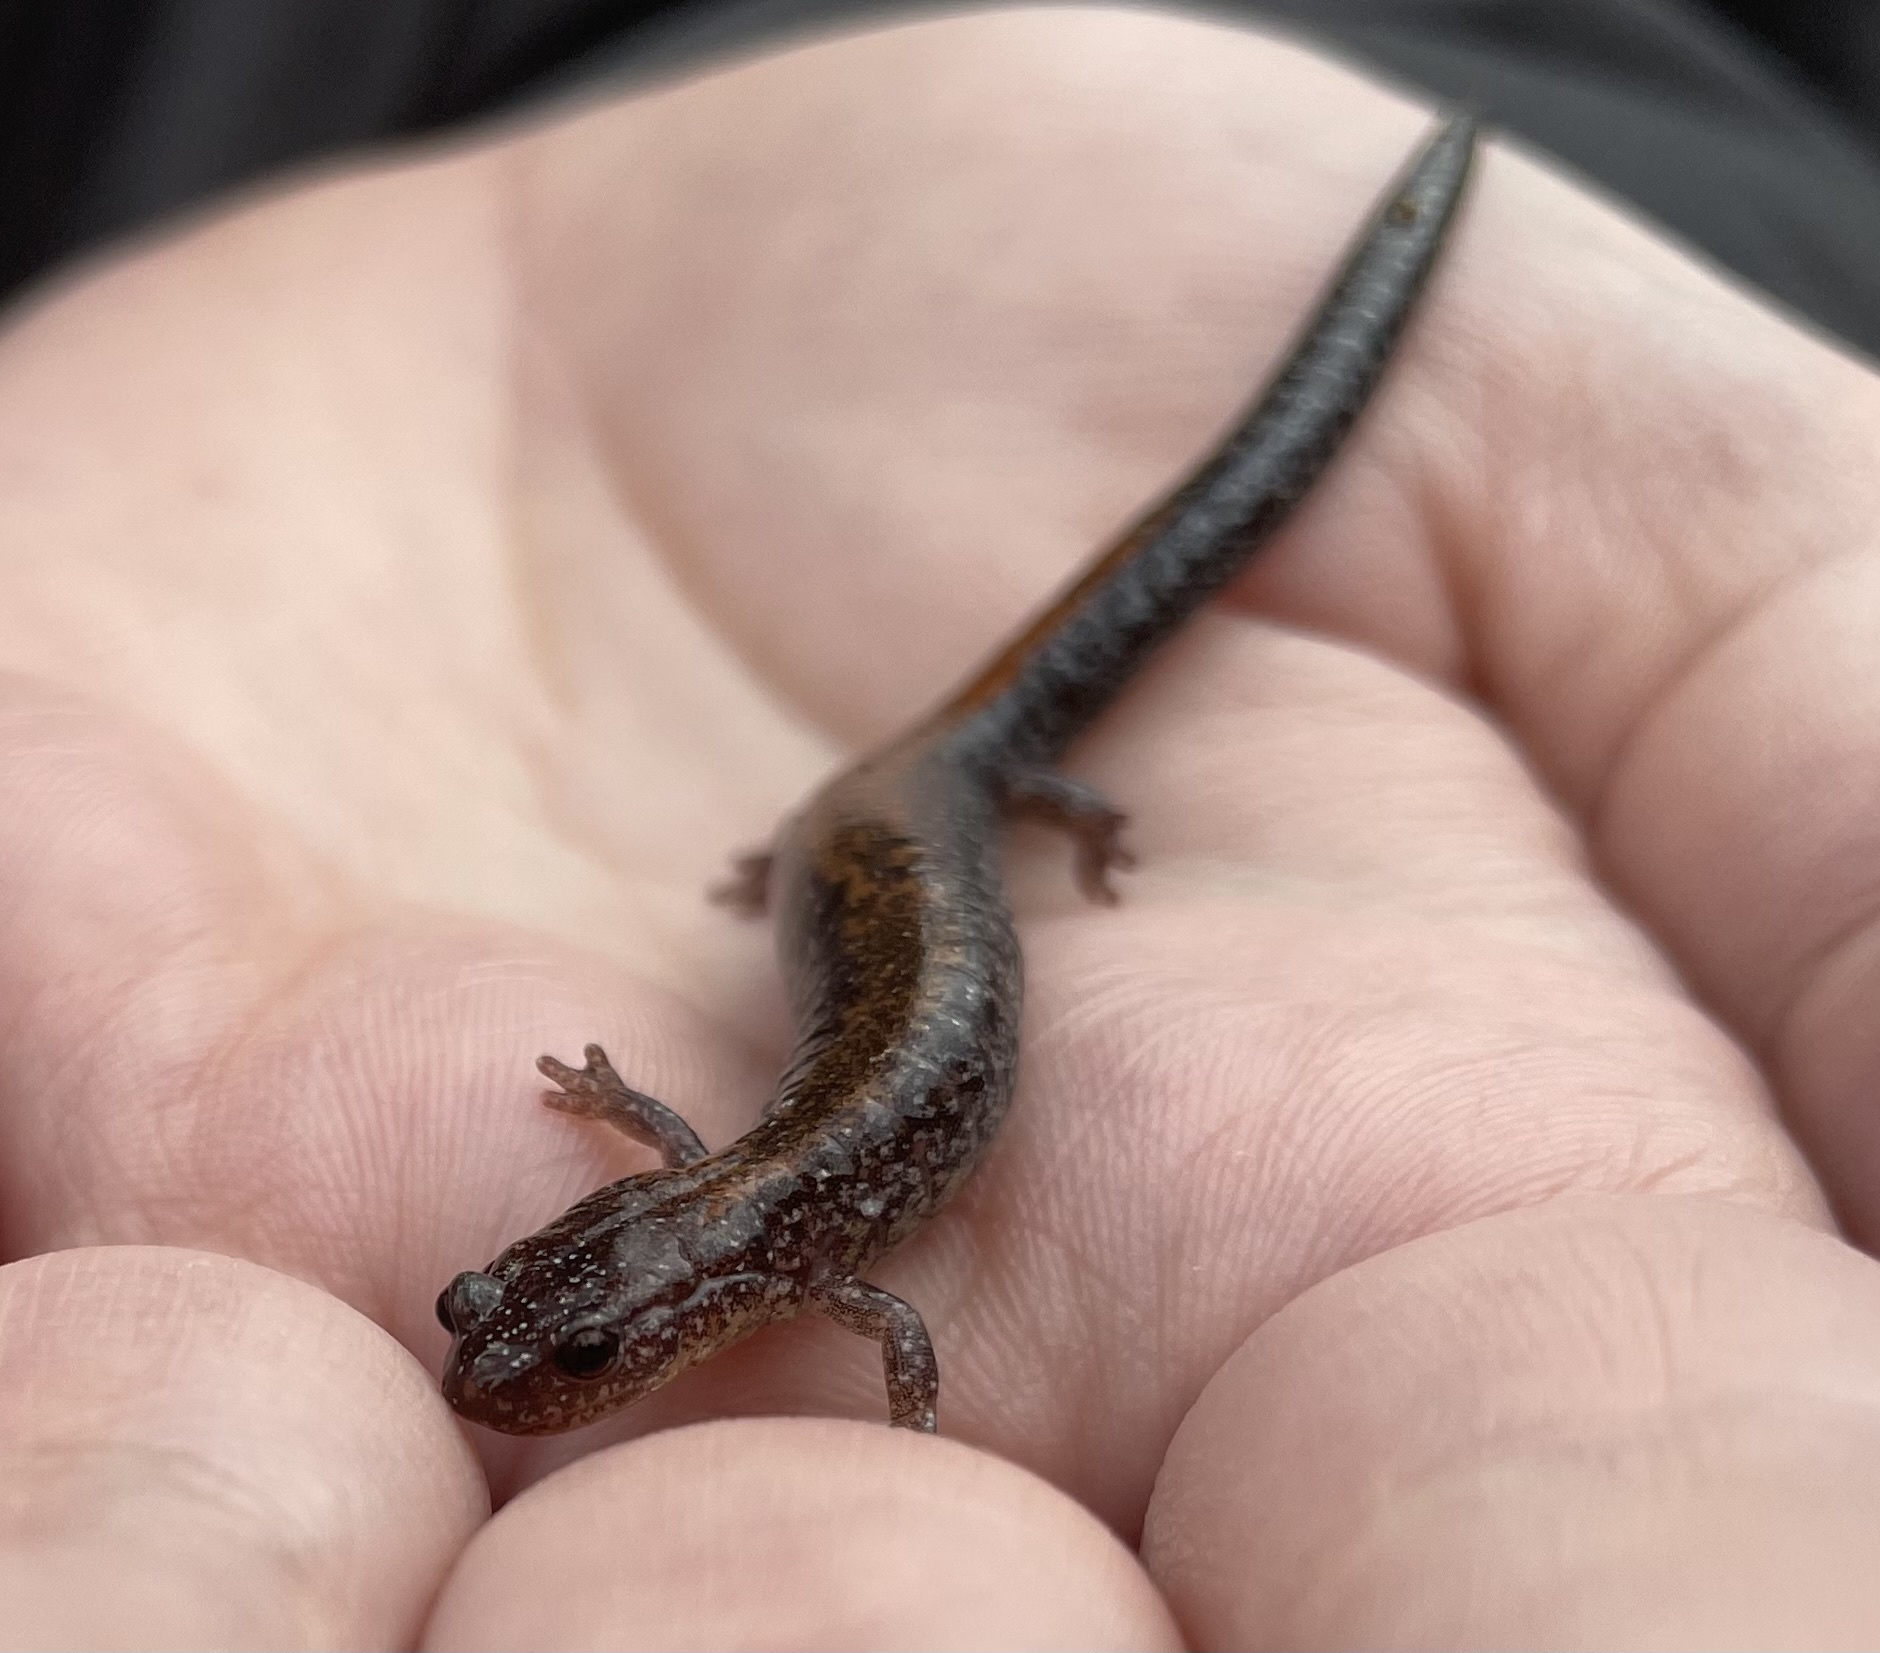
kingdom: Animalia
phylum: Chordata
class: Amphibia
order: Caudata
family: Plethodontidae
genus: Plethodon
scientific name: Plethodon cinereus
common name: Redback salamander
